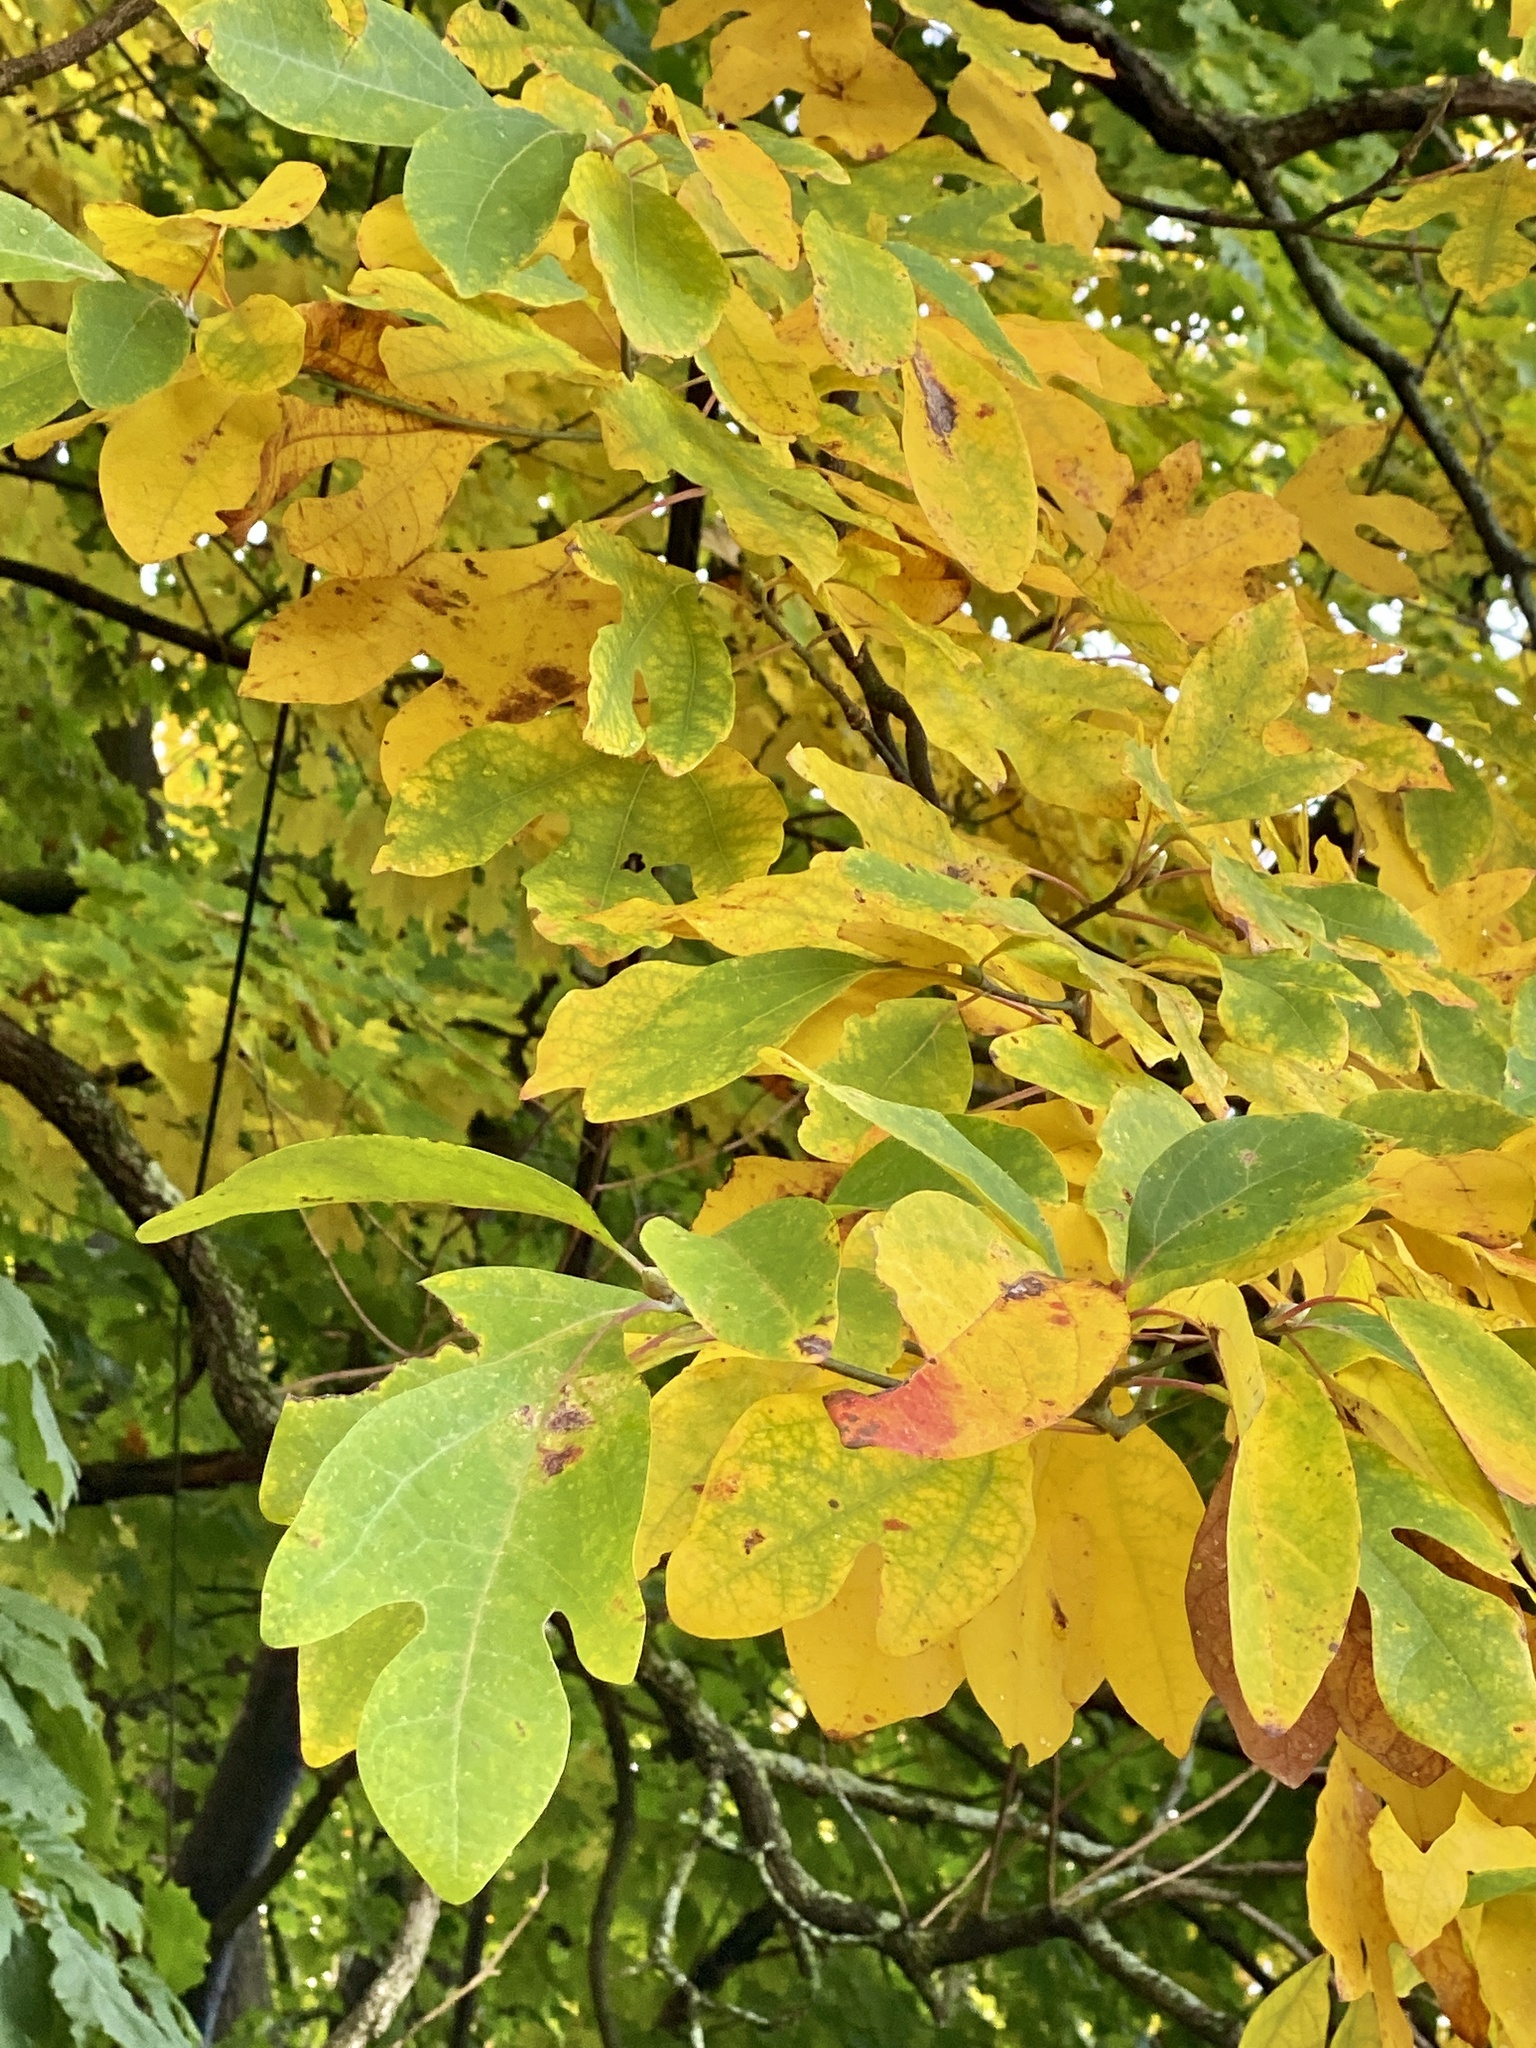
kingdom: Plantae
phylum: Tracheophyta
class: Magnoliopsida
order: Laurales
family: Lauraceae
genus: Sassafras
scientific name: Sassafras albidum
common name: Sassafras
